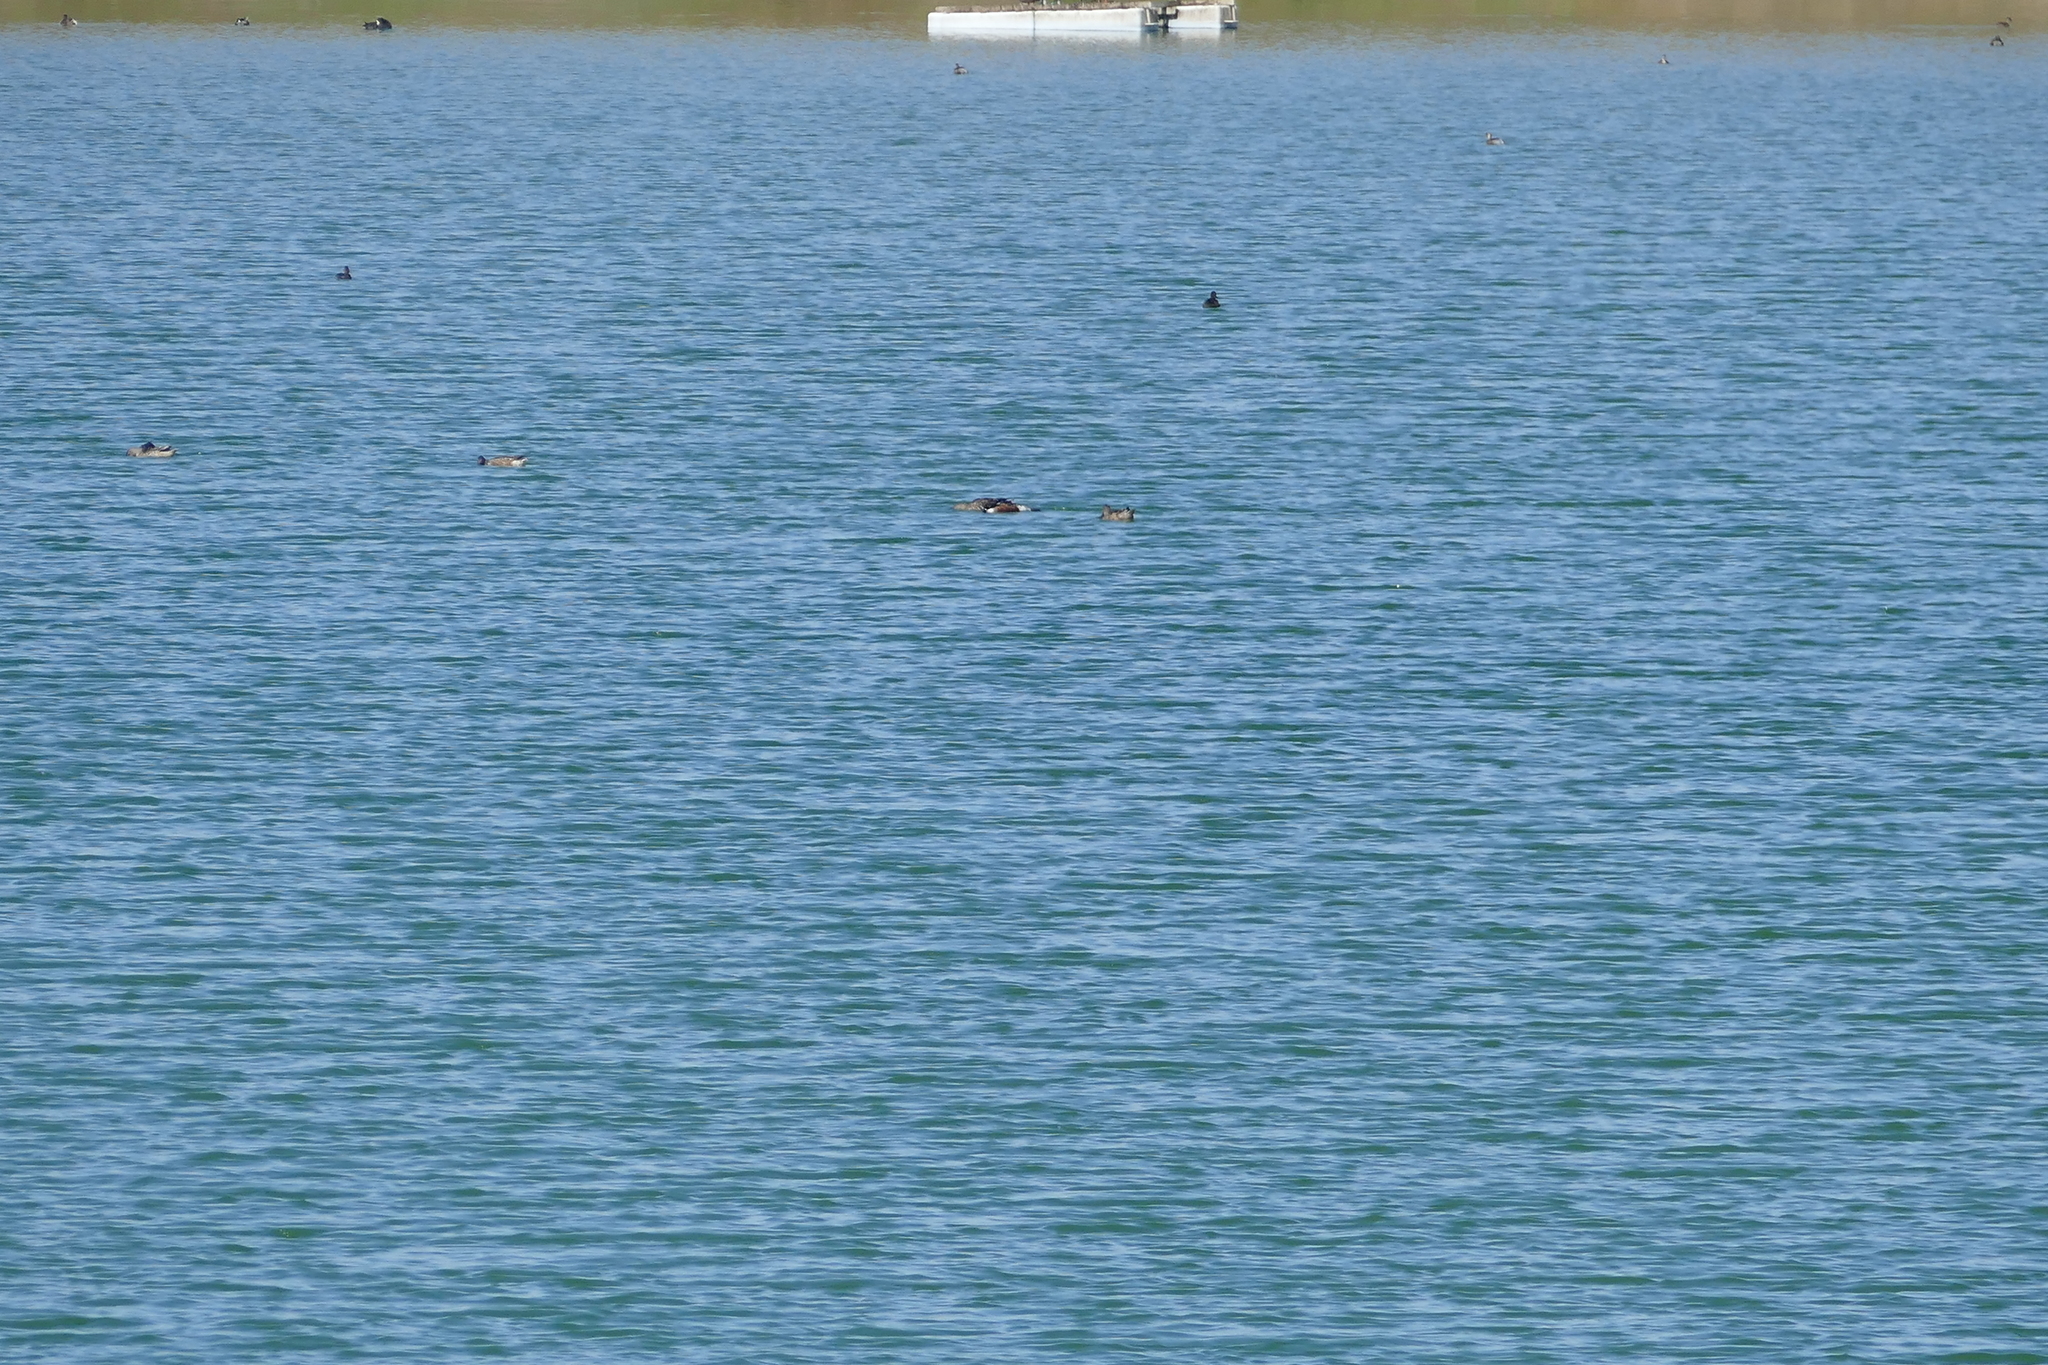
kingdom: Animalia
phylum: Chordata
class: Aves
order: Anseriformes
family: Anatidae
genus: Spatula
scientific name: Spatula clypeata
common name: Northern shoveler
